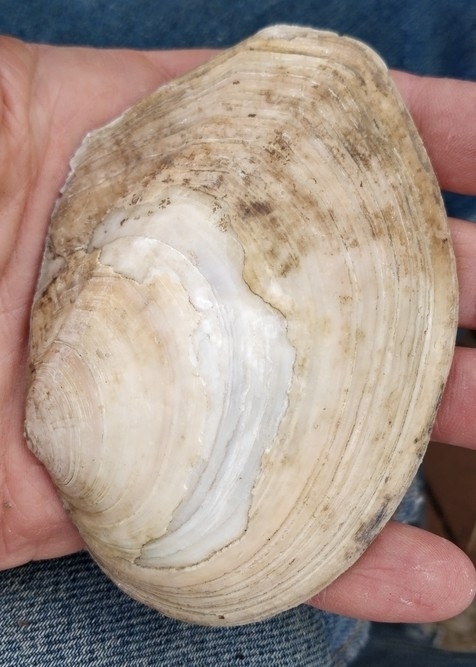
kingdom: Animalia
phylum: Mollusca
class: Bivalvia
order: Unionida
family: Unionidae
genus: Lasmigona
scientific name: Lasmigona complanata
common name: White heelsplitter
